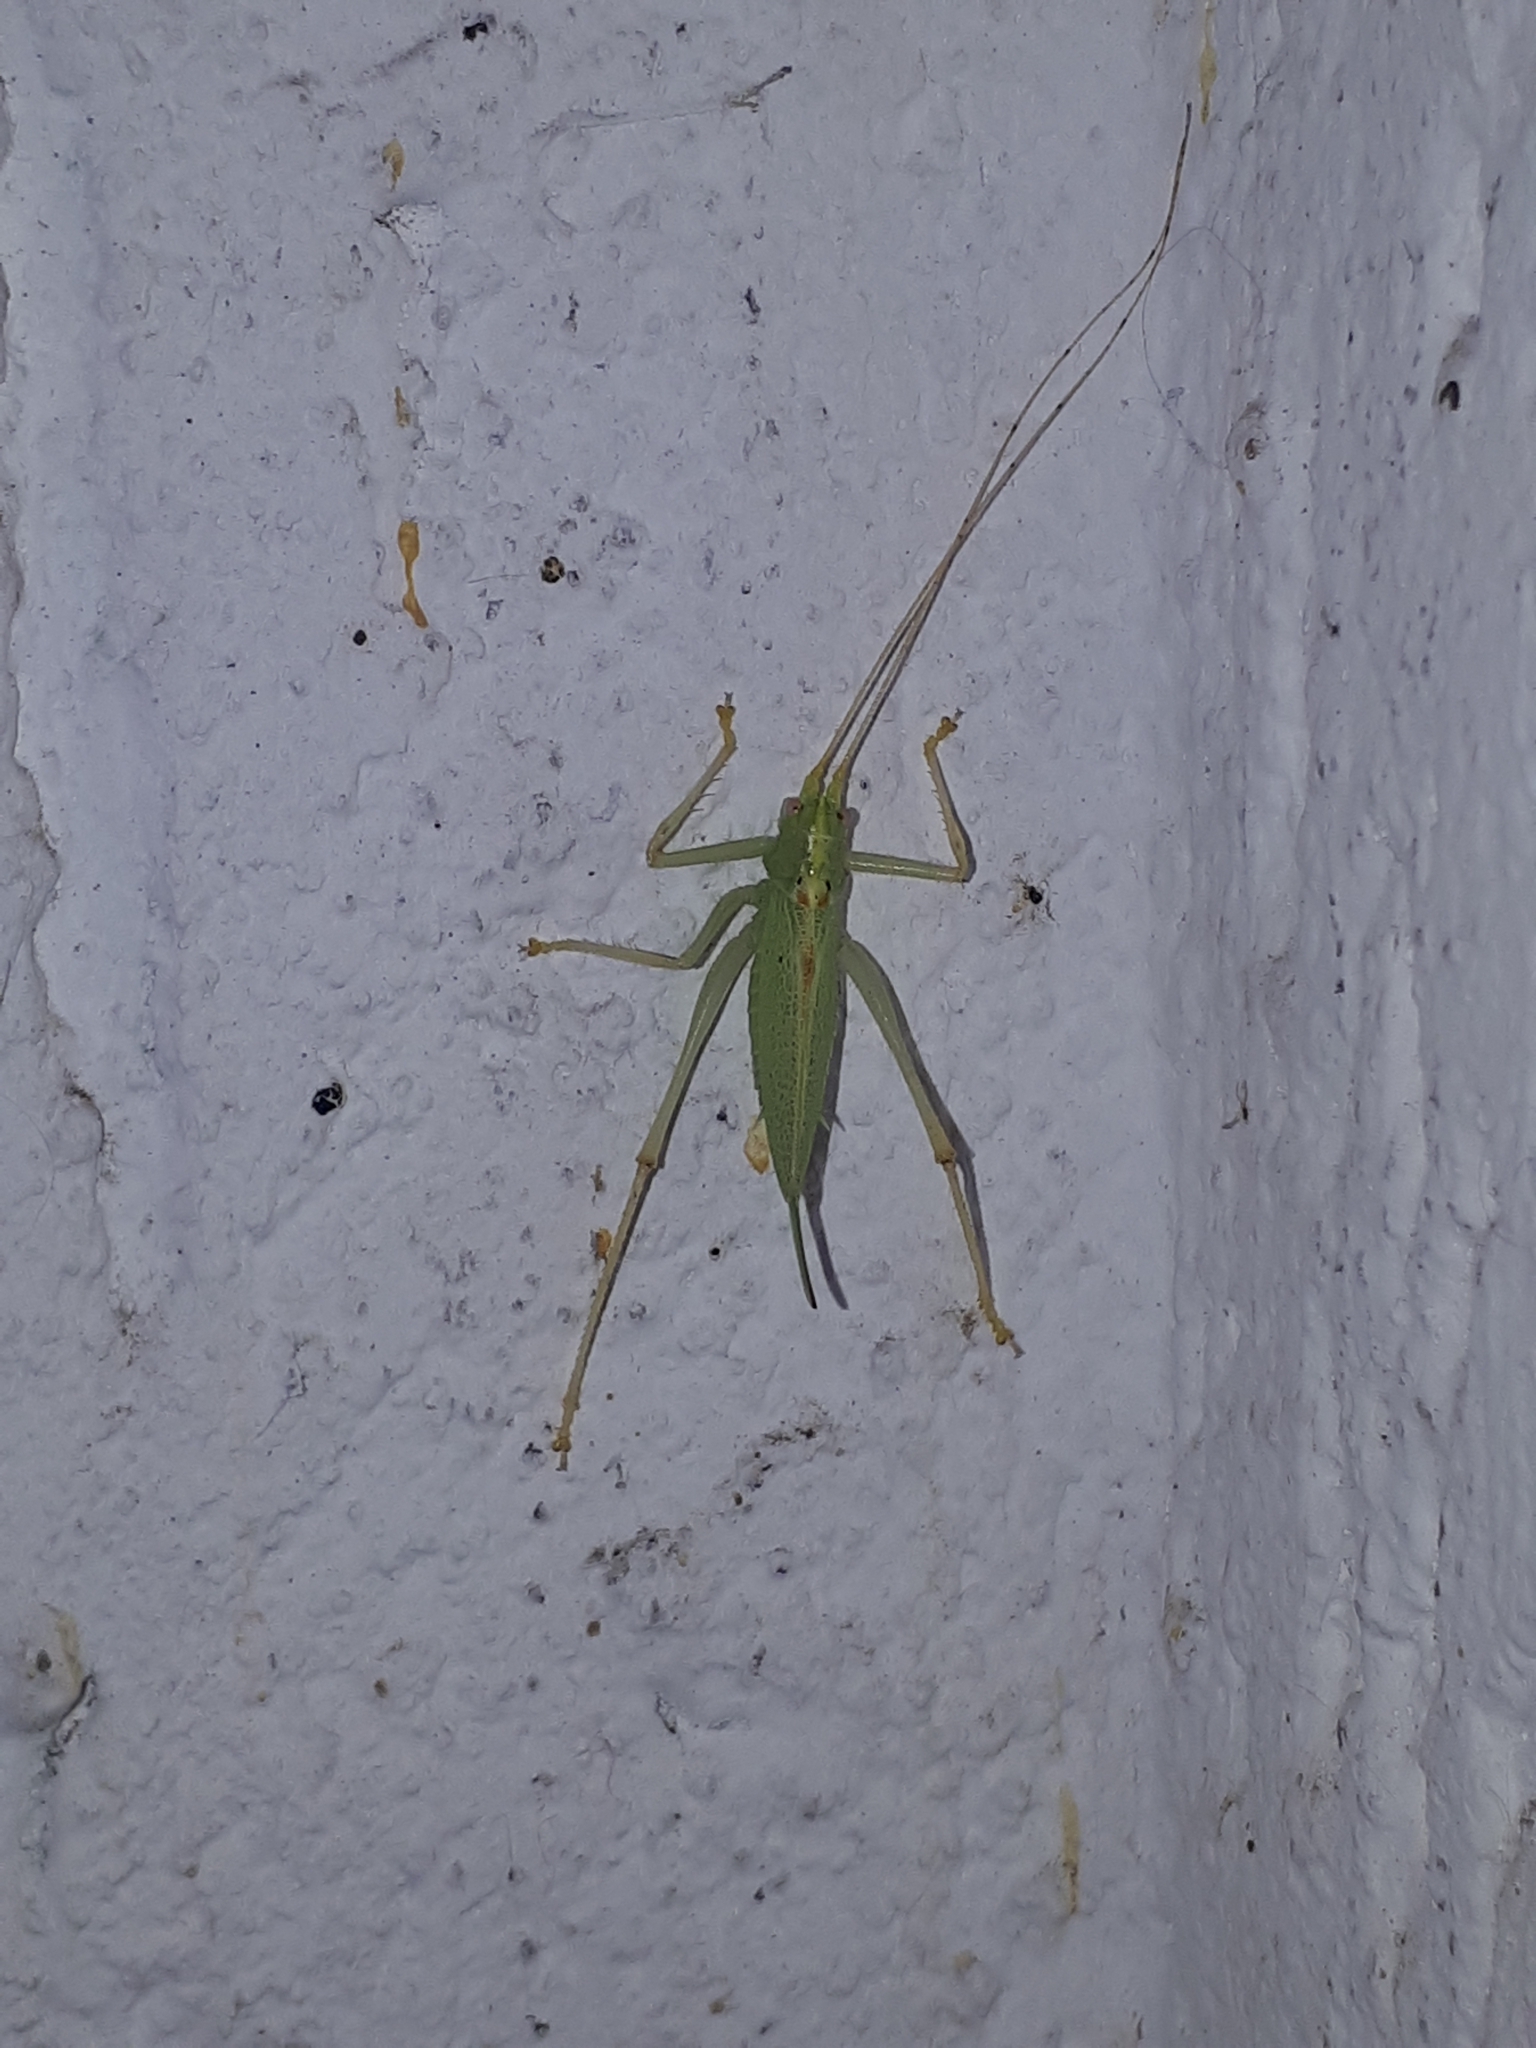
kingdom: Animalia
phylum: Arthropoda
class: Insecta
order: Orthoptera
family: Tettigoniidae
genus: Meconema
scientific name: Meconema thalassinum
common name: Oak bush-cricket
